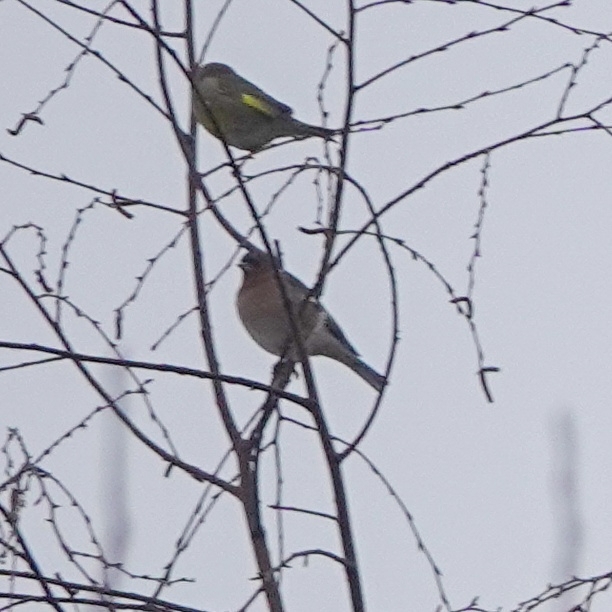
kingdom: Animalia
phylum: Chordata
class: Aves
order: Passeriformes
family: Fringillidae
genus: Fringilla
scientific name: Fringilla coelebs
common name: Common chaffinch
